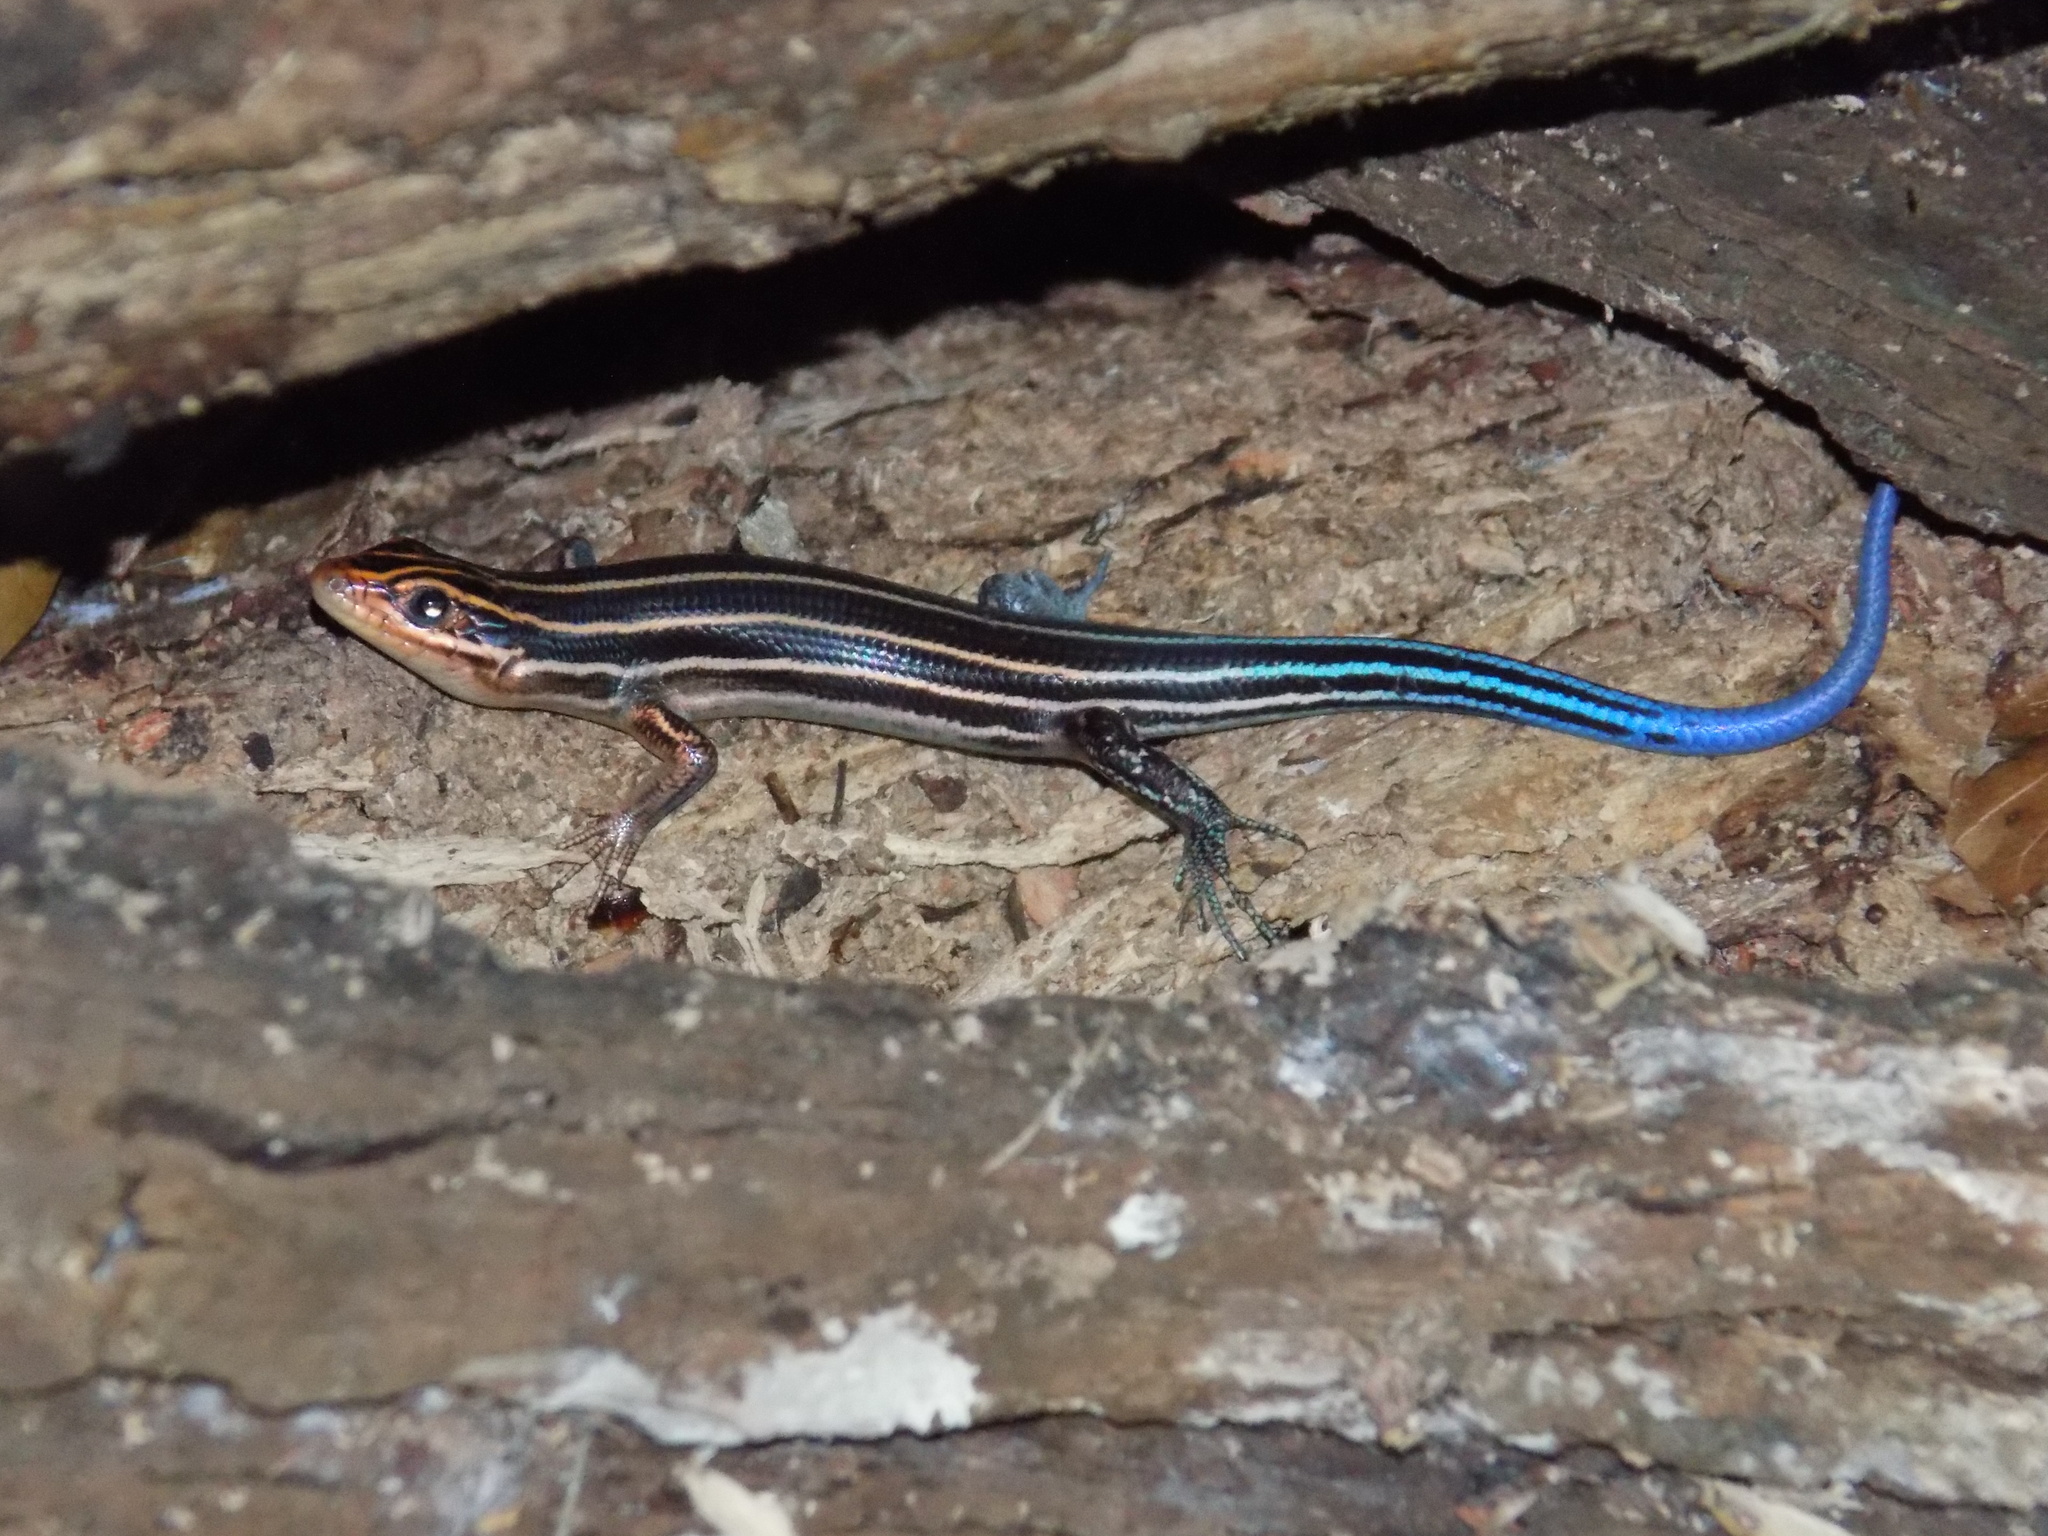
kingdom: Animalia
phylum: Chordata
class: Squamata
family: Scincidae
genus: Plestiodon
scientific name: Plestiodon laticeps
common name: Broadhead skink
